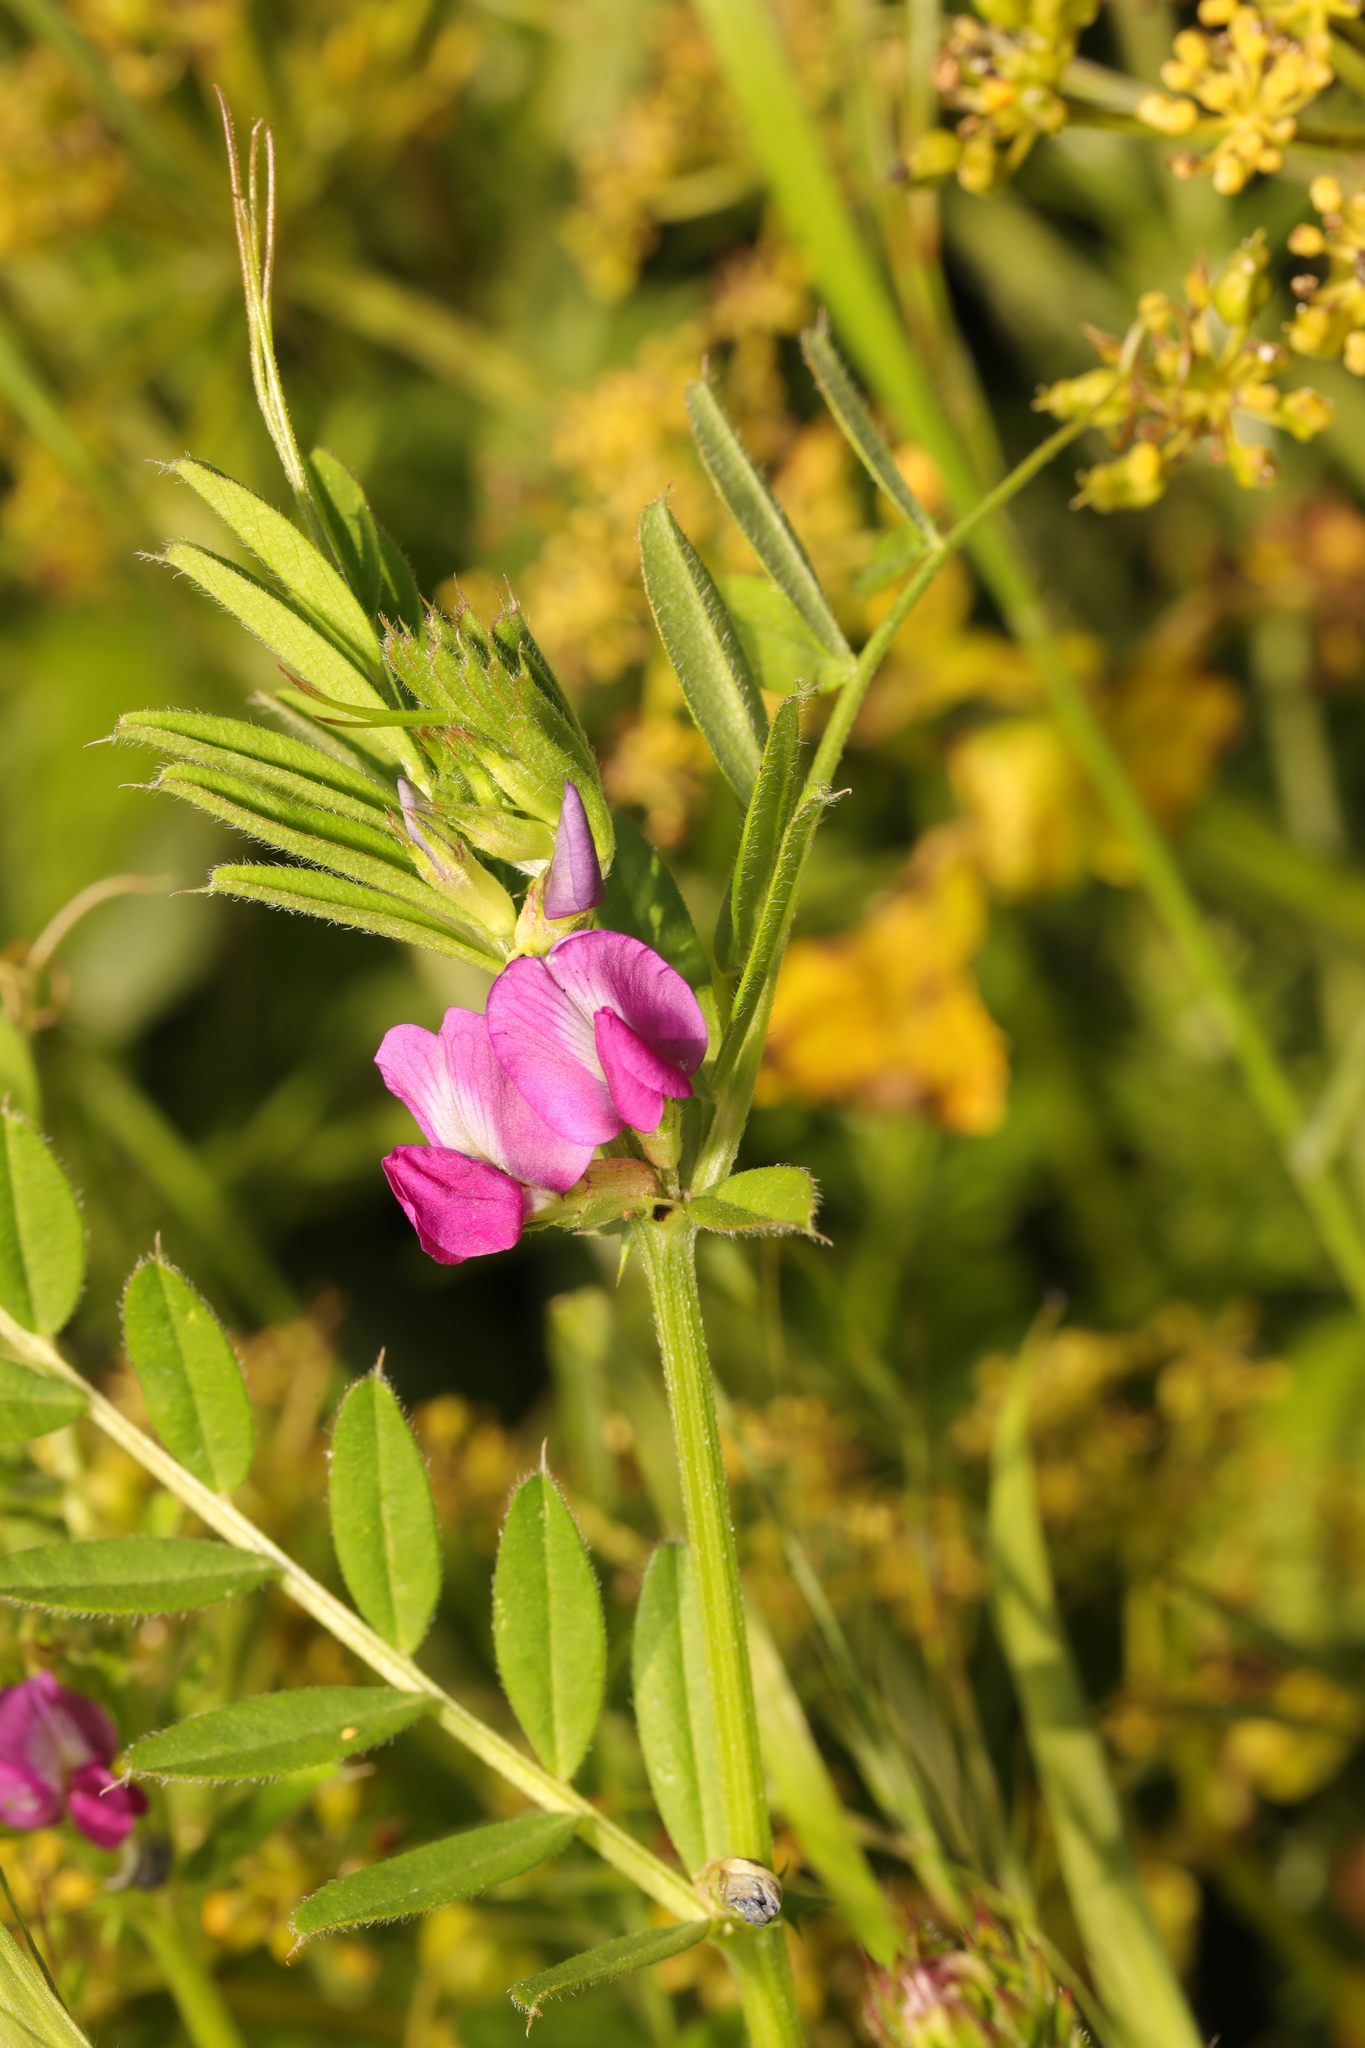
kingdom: Plantae
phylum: Tracheophyta
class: Magnoliopsida
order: Fabales
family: Fabaceae
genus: Vicia
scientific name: Vicia sativa
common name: Garden vetch
